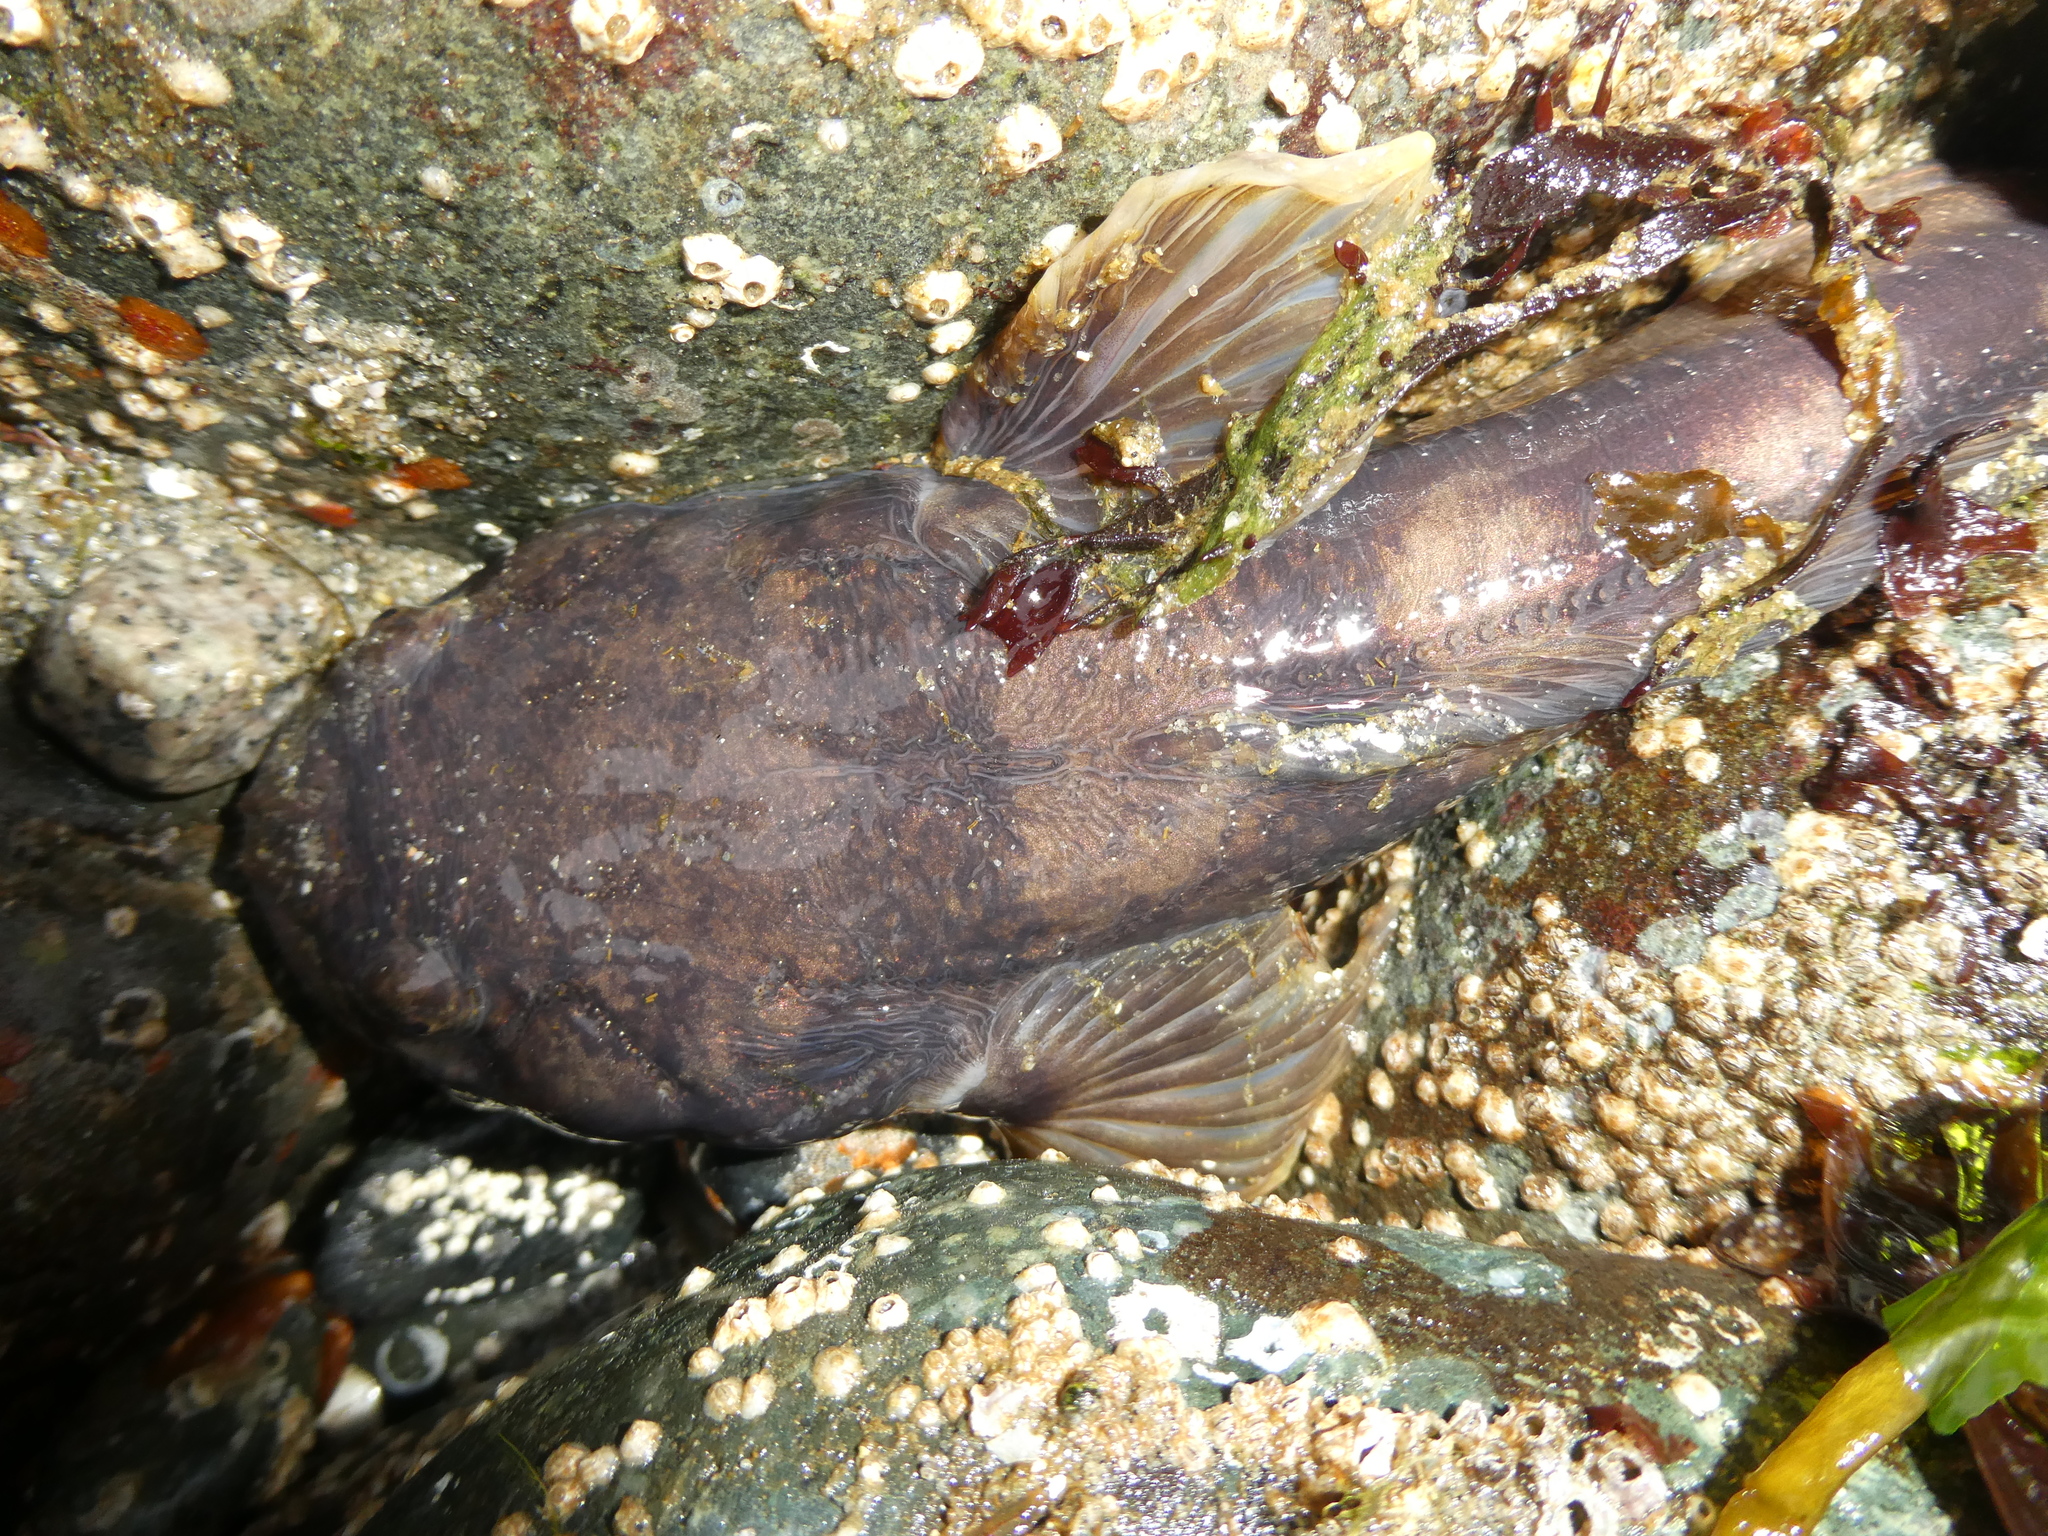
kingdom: Animalia
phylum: Chordata
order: Batrachoidiformes
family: Batrachoididae
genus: Porichthys
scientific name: Porichthys notatus
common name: Plainfin midshipman
